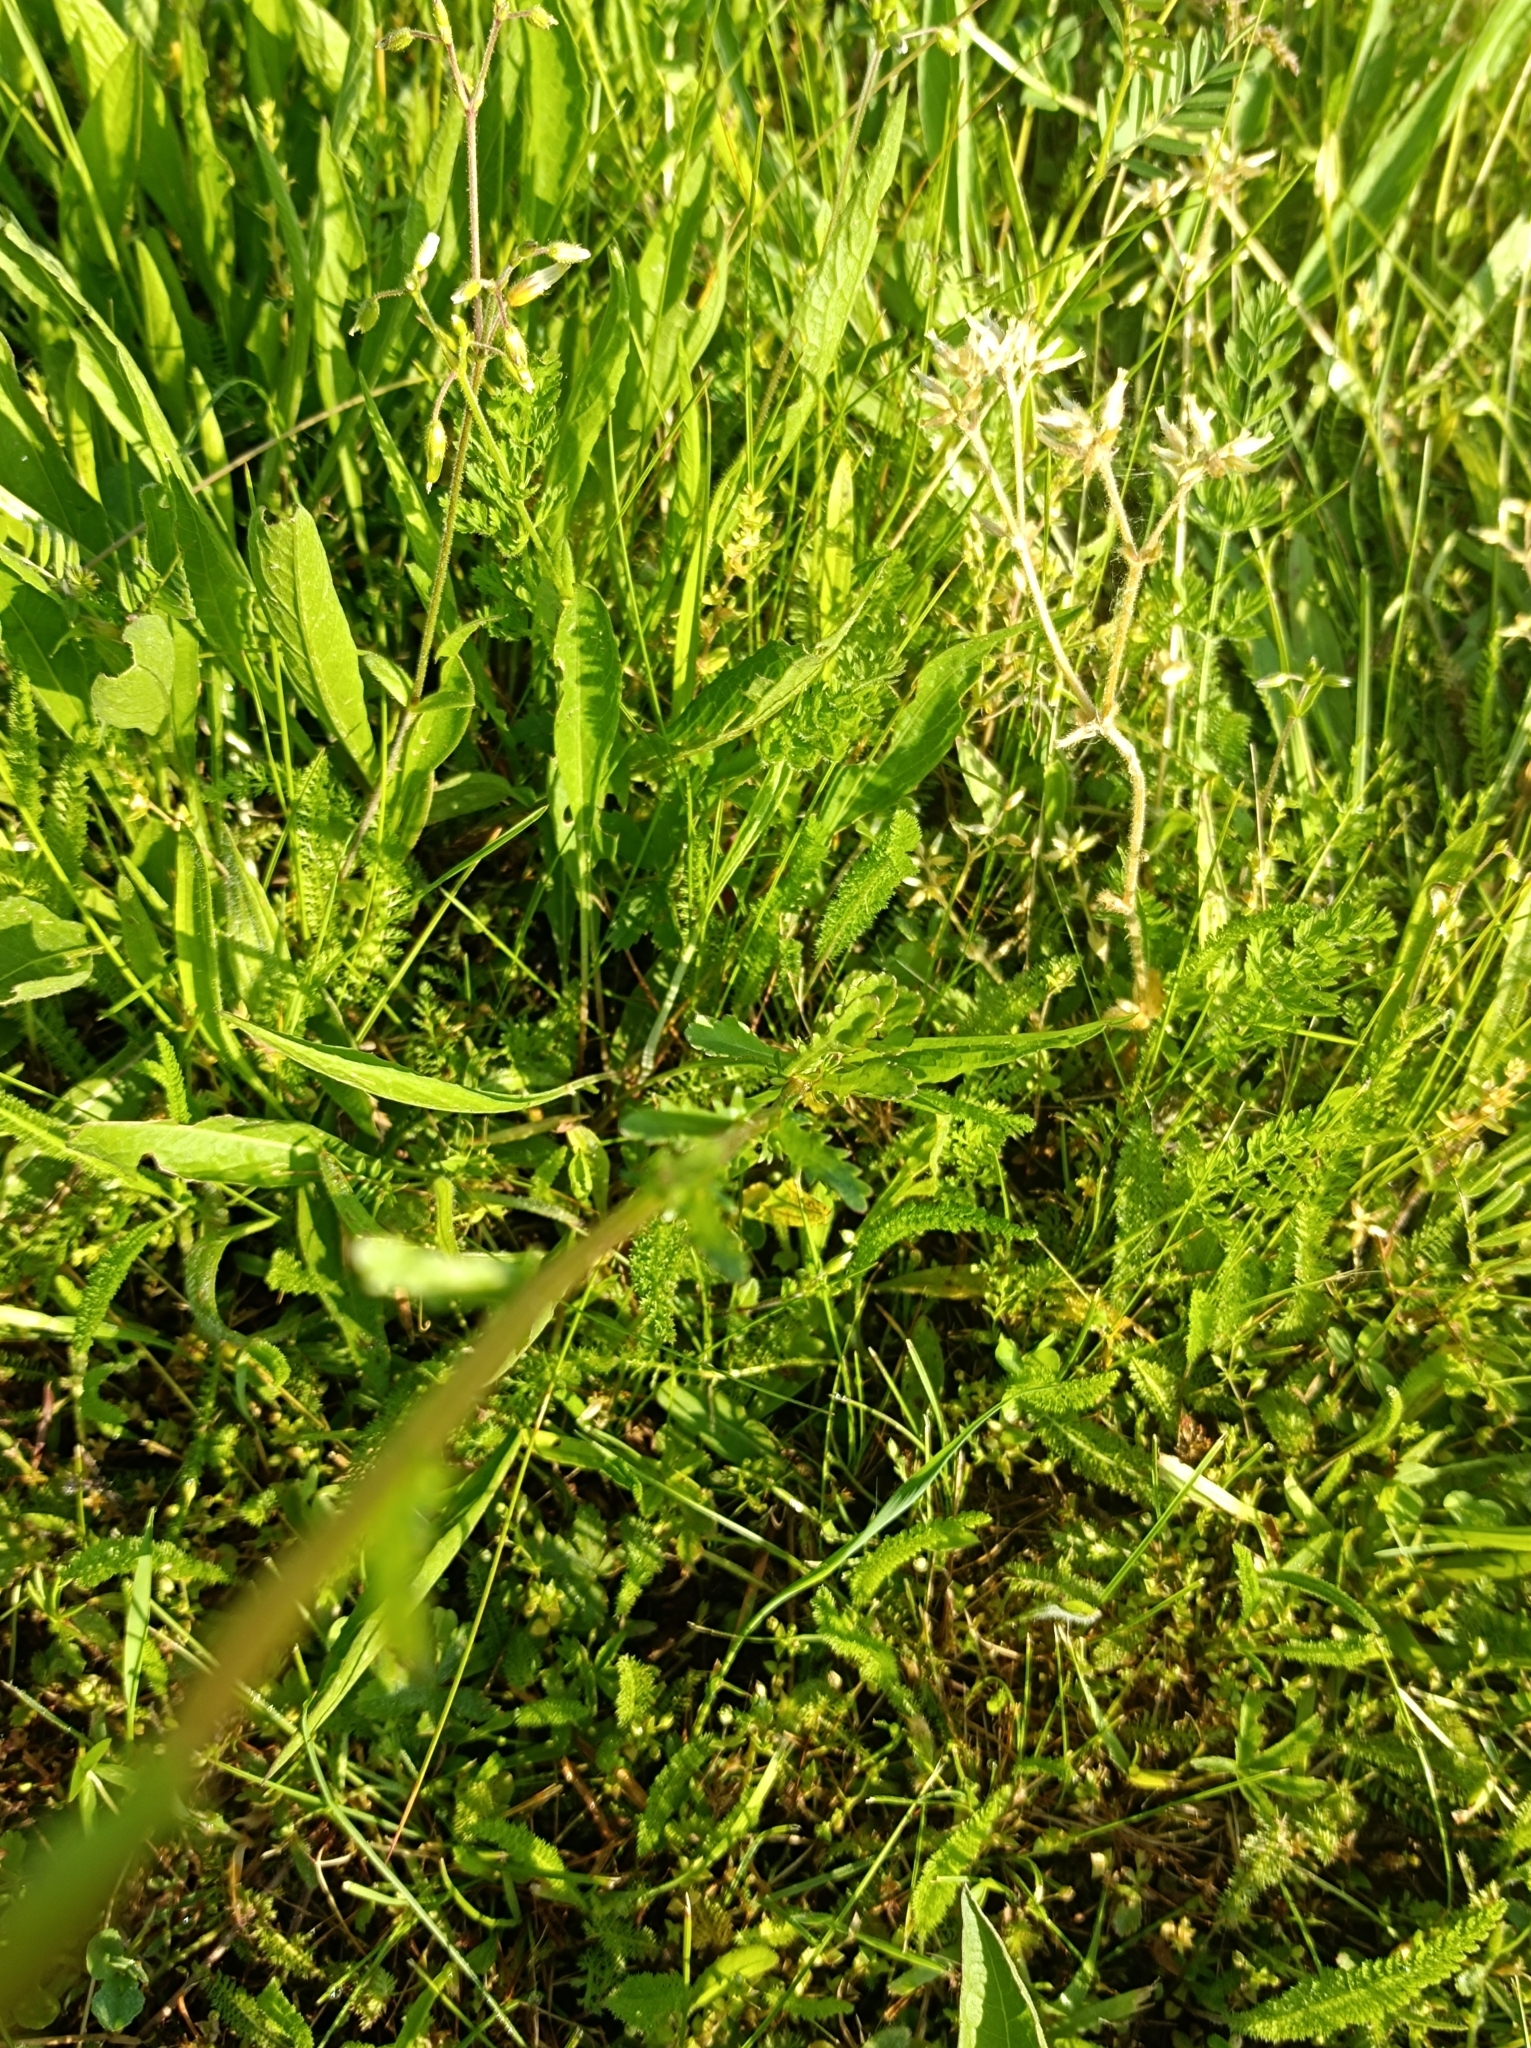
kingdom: Plantae
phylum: Tracheophyta
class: Magnoliopsida
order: Asterales
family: Asteraceae
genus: Leucanthemum
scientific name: Leucanthemum vulgare
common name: Oxeye daisy
